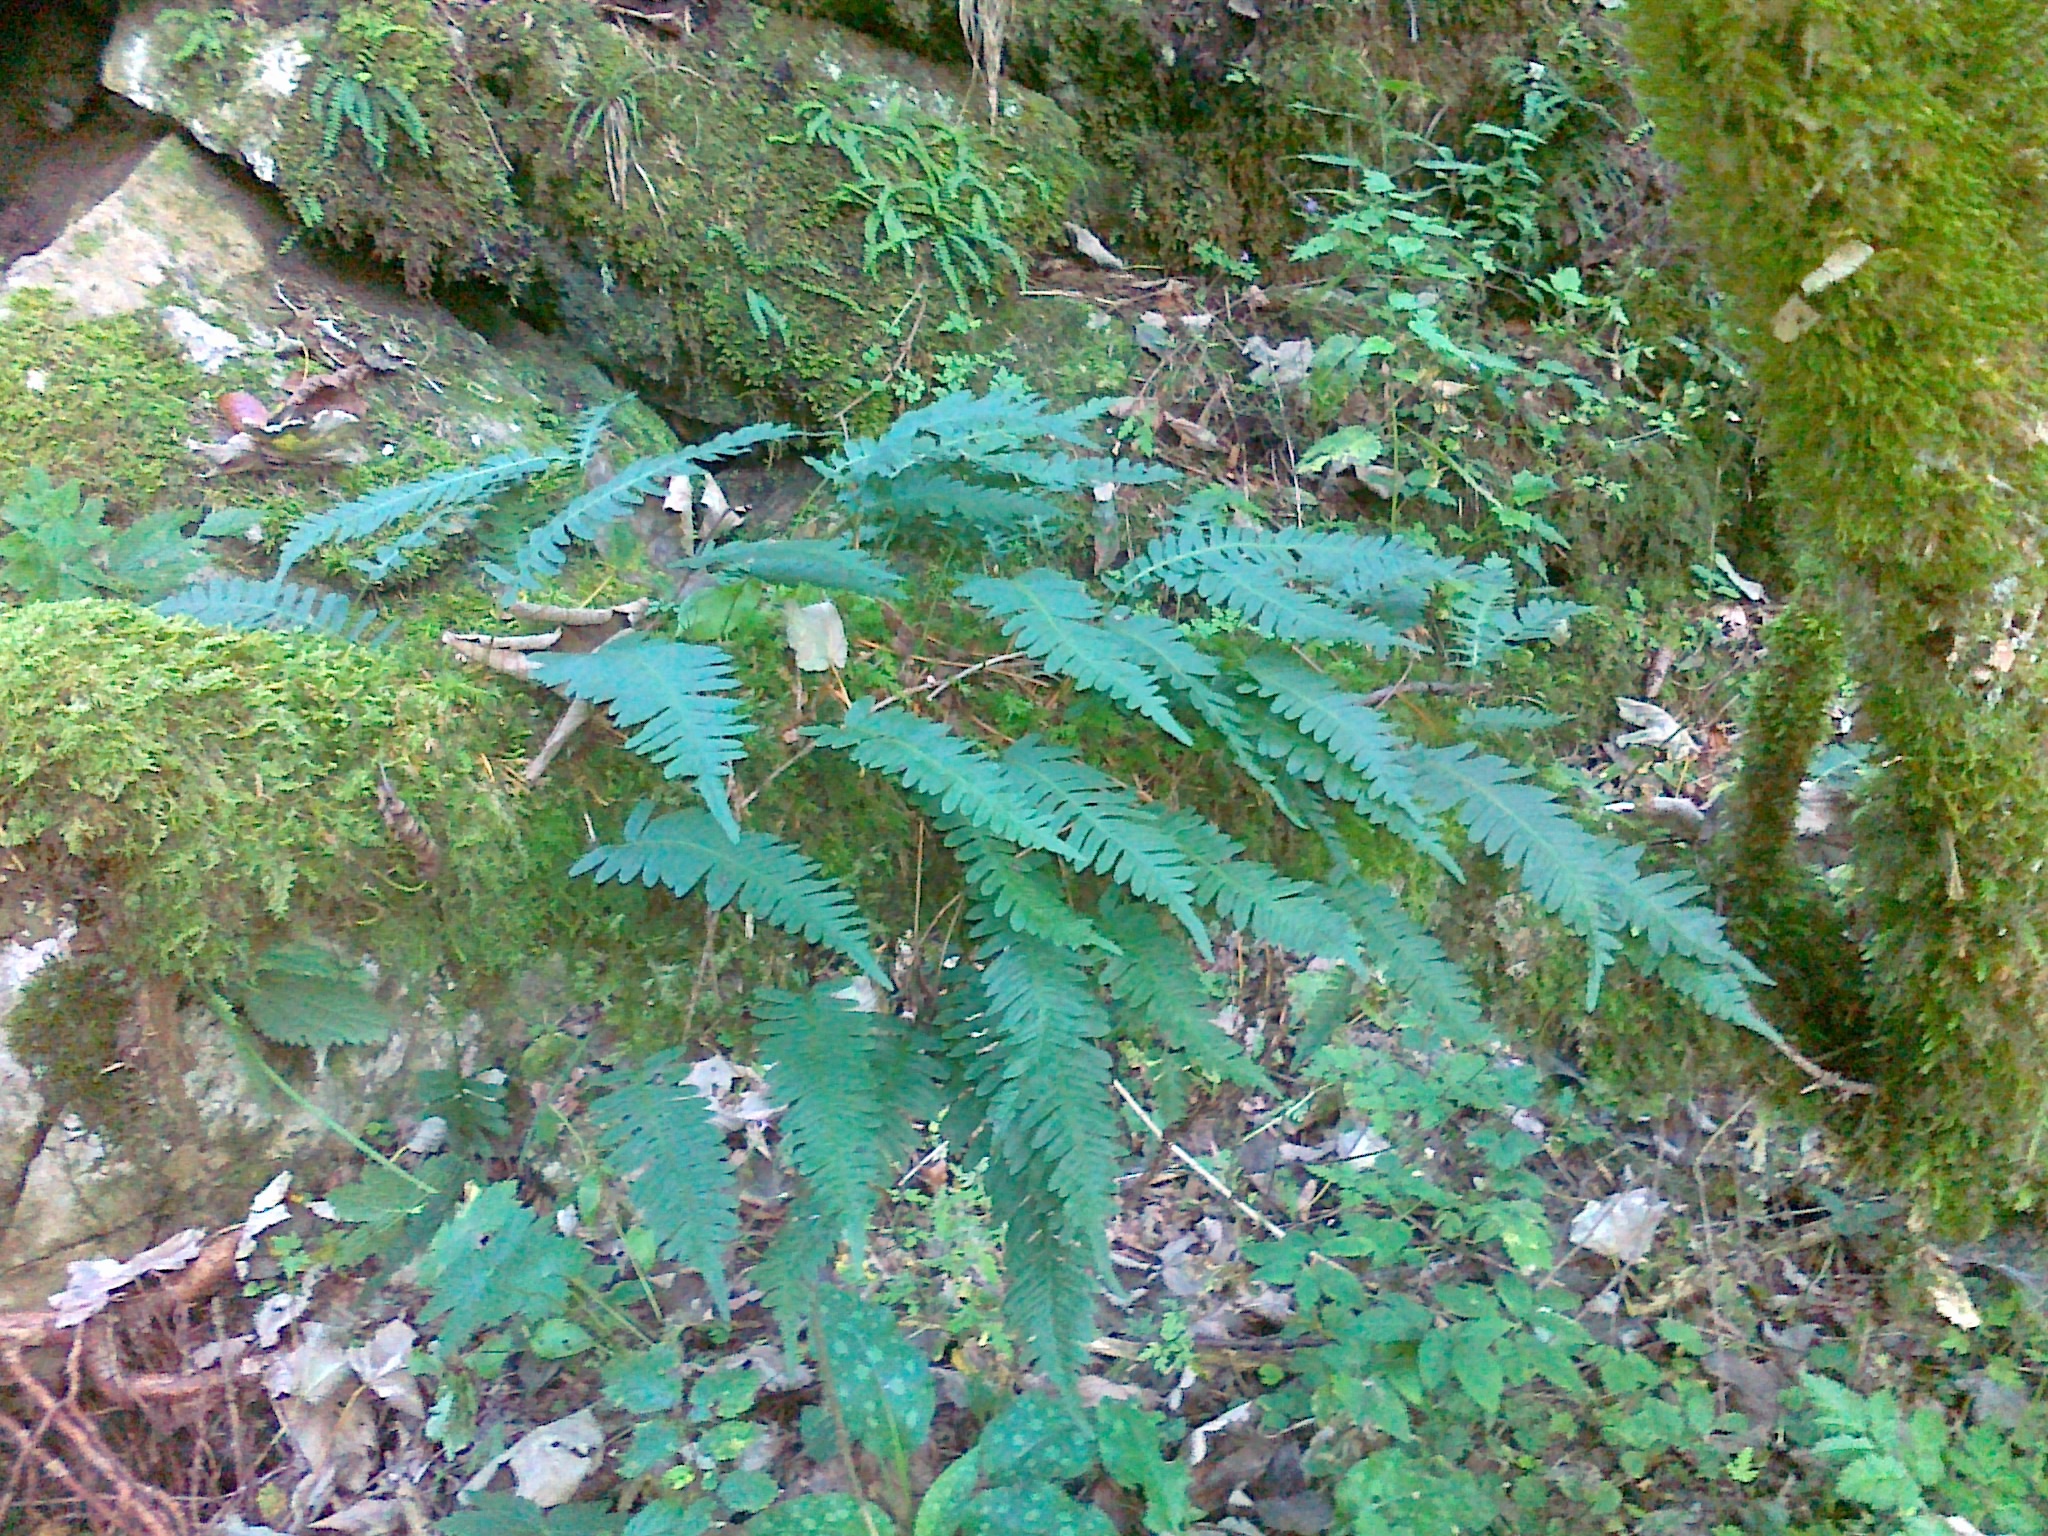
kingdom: Plantae
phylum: Tracheophyta
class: Polypodiopsida
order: Polypodiales
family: Polypodiaceae
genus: Polypodium
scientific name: Polypodium vulgare
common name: Common polypody
